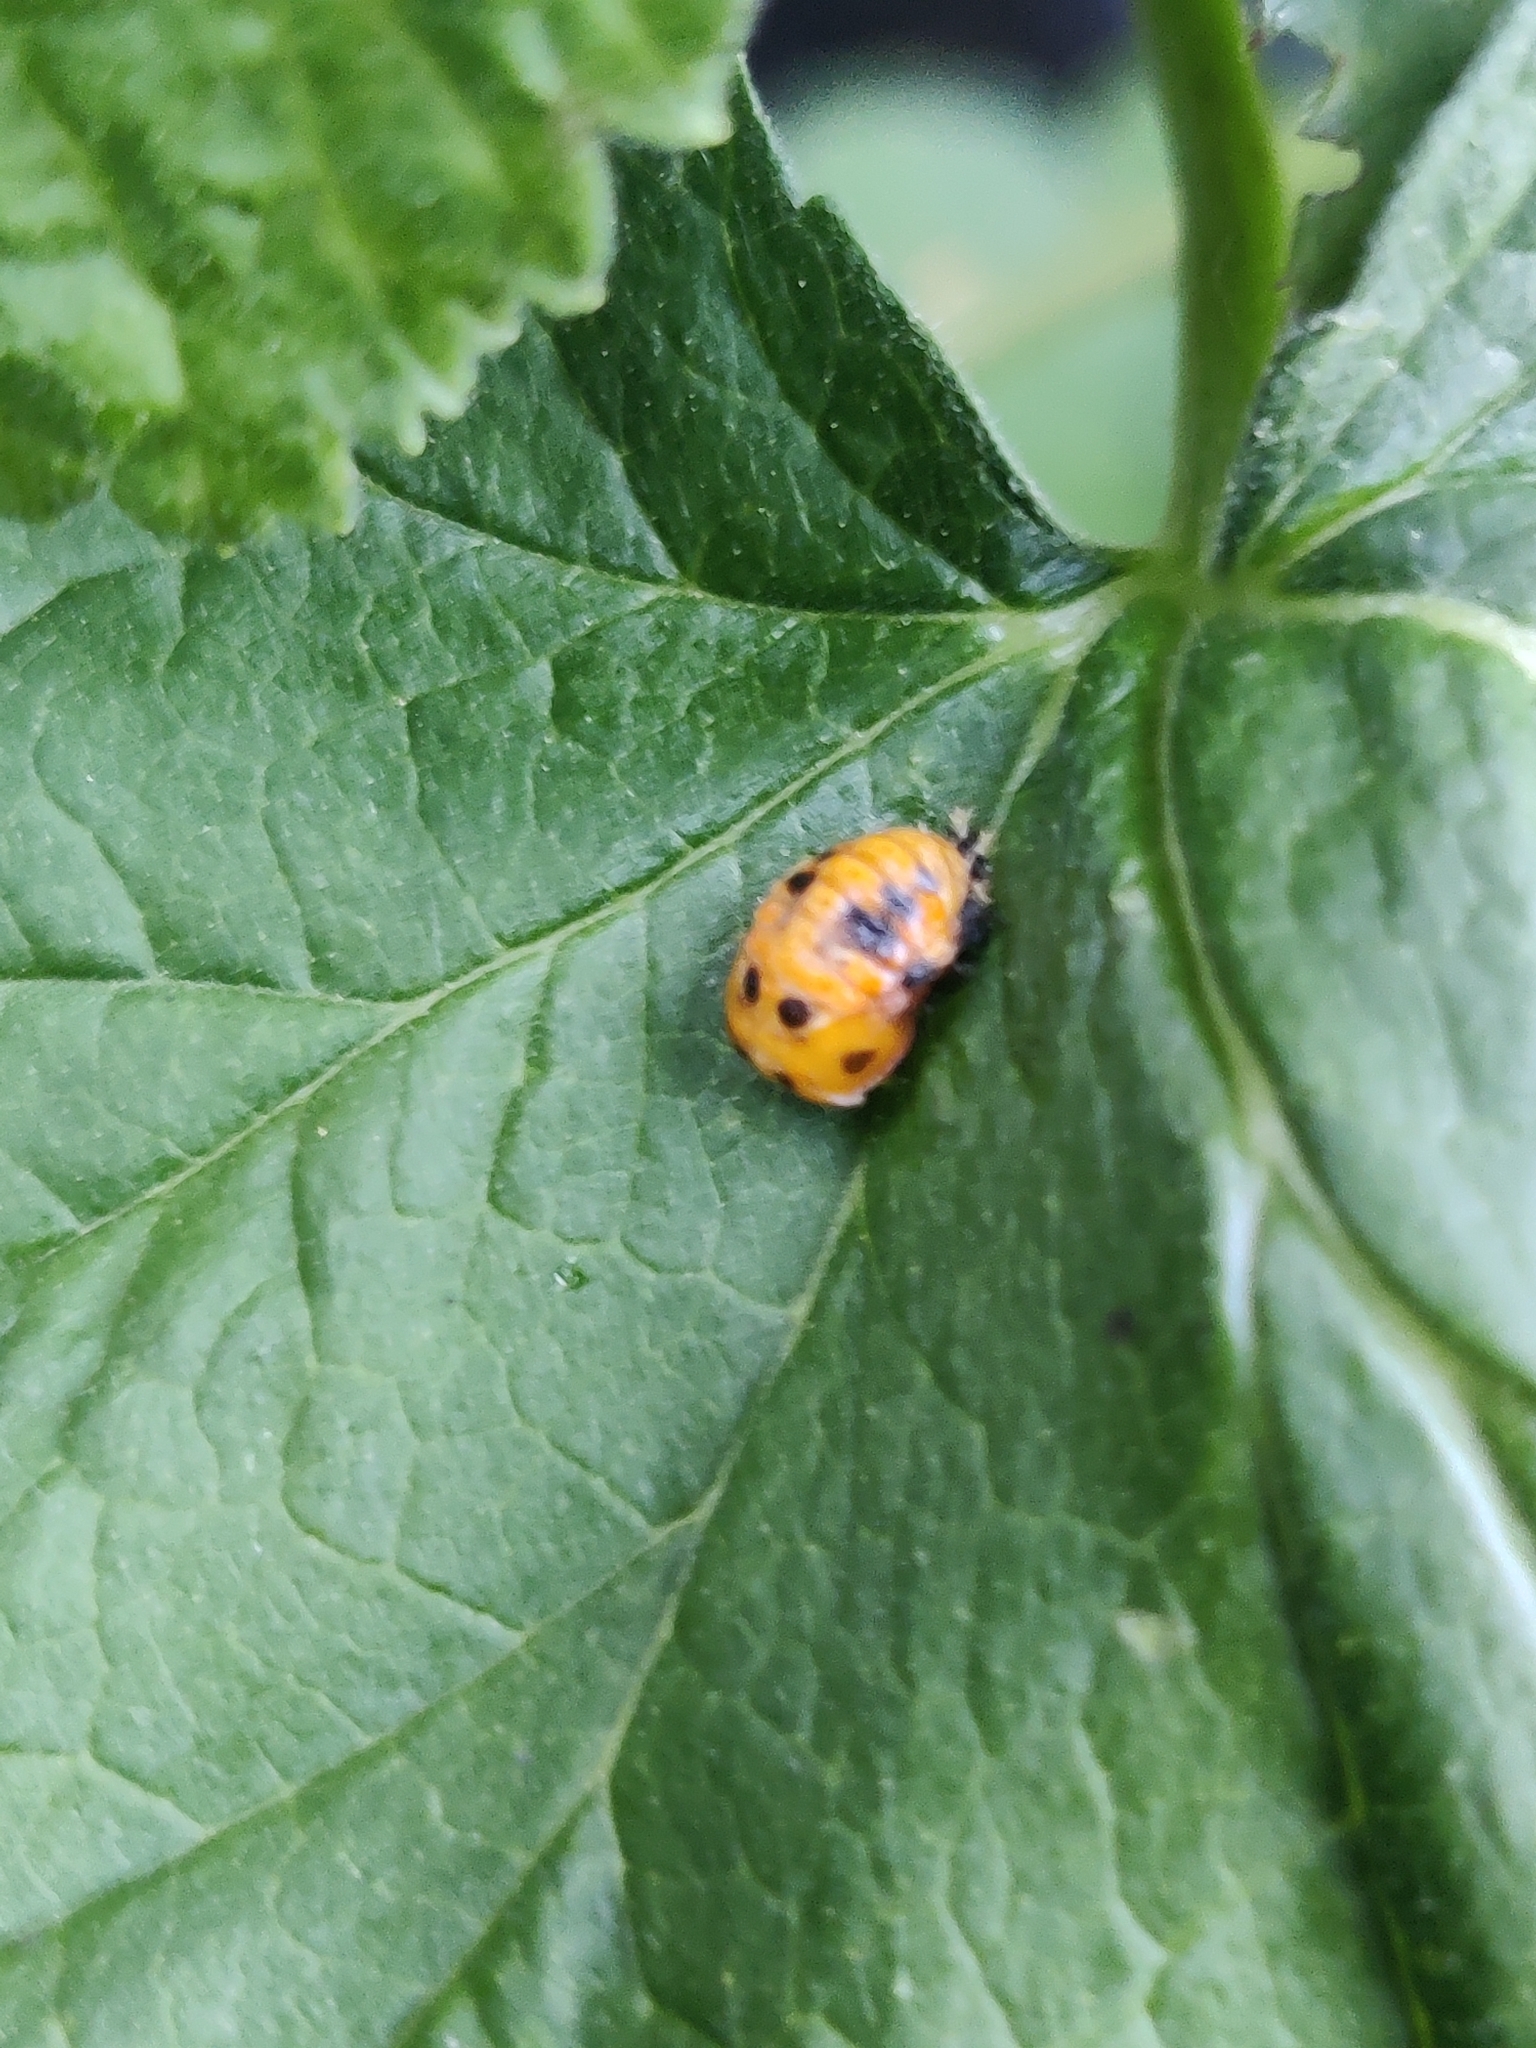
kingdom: Animalia
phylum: Arthropoda
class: Insecta
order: Coleoptera
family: Coccinellidae
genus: Harmonia
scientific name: Harmonia axyridis
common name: Harlequin ladybird
